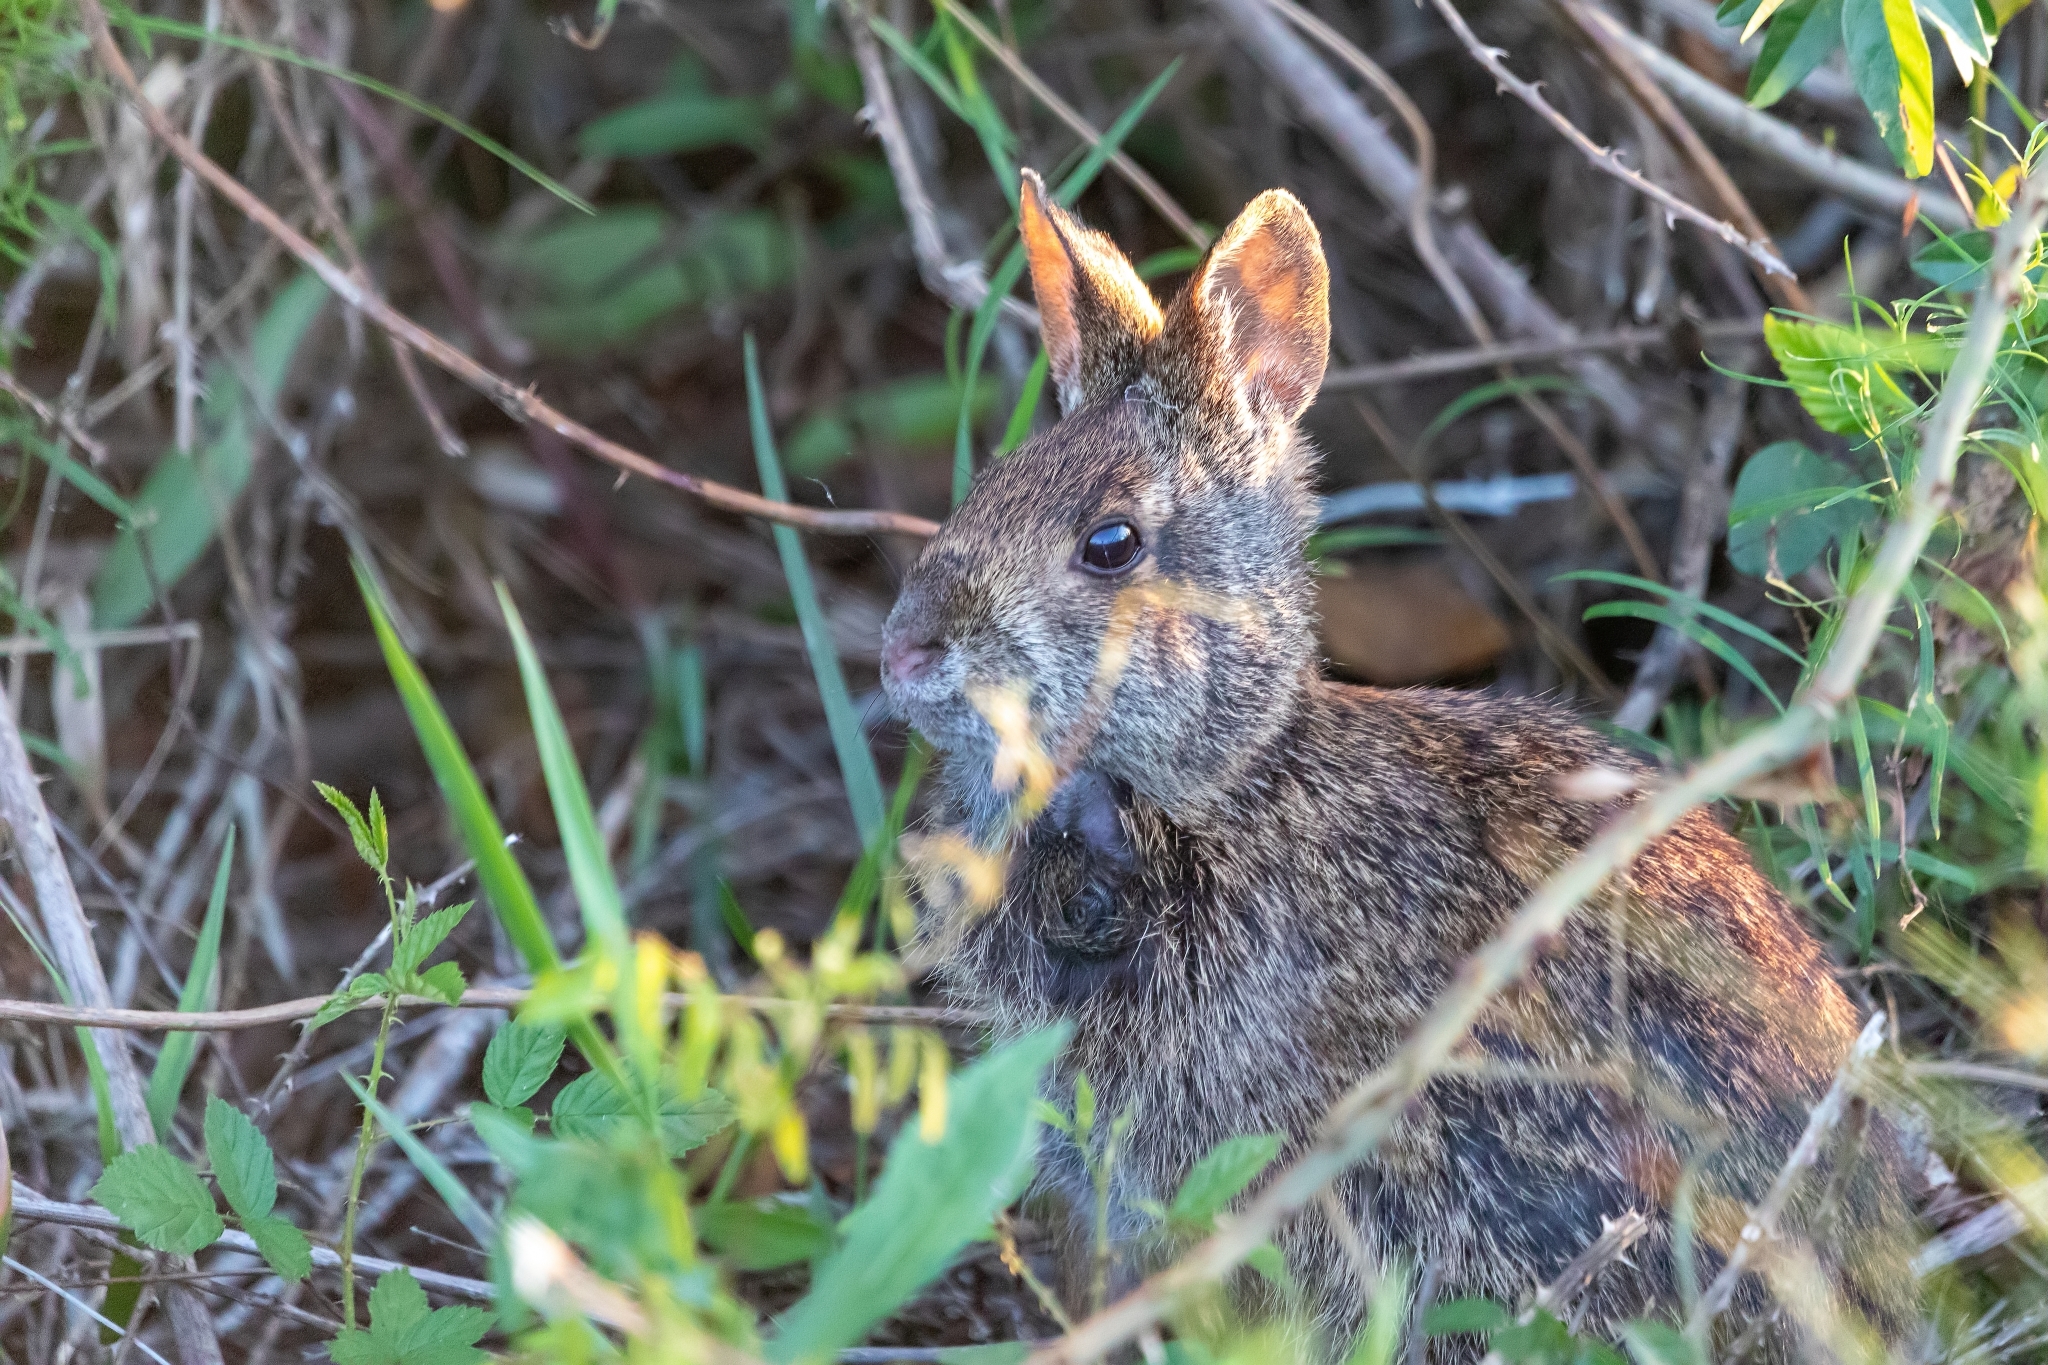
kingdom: Animalia
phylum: Chordata
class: Mammalia
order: Lagomorpha
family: Leporidae
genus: Sylvilagus
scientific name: Sylvilagus palustris
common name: Marsh rabbit
